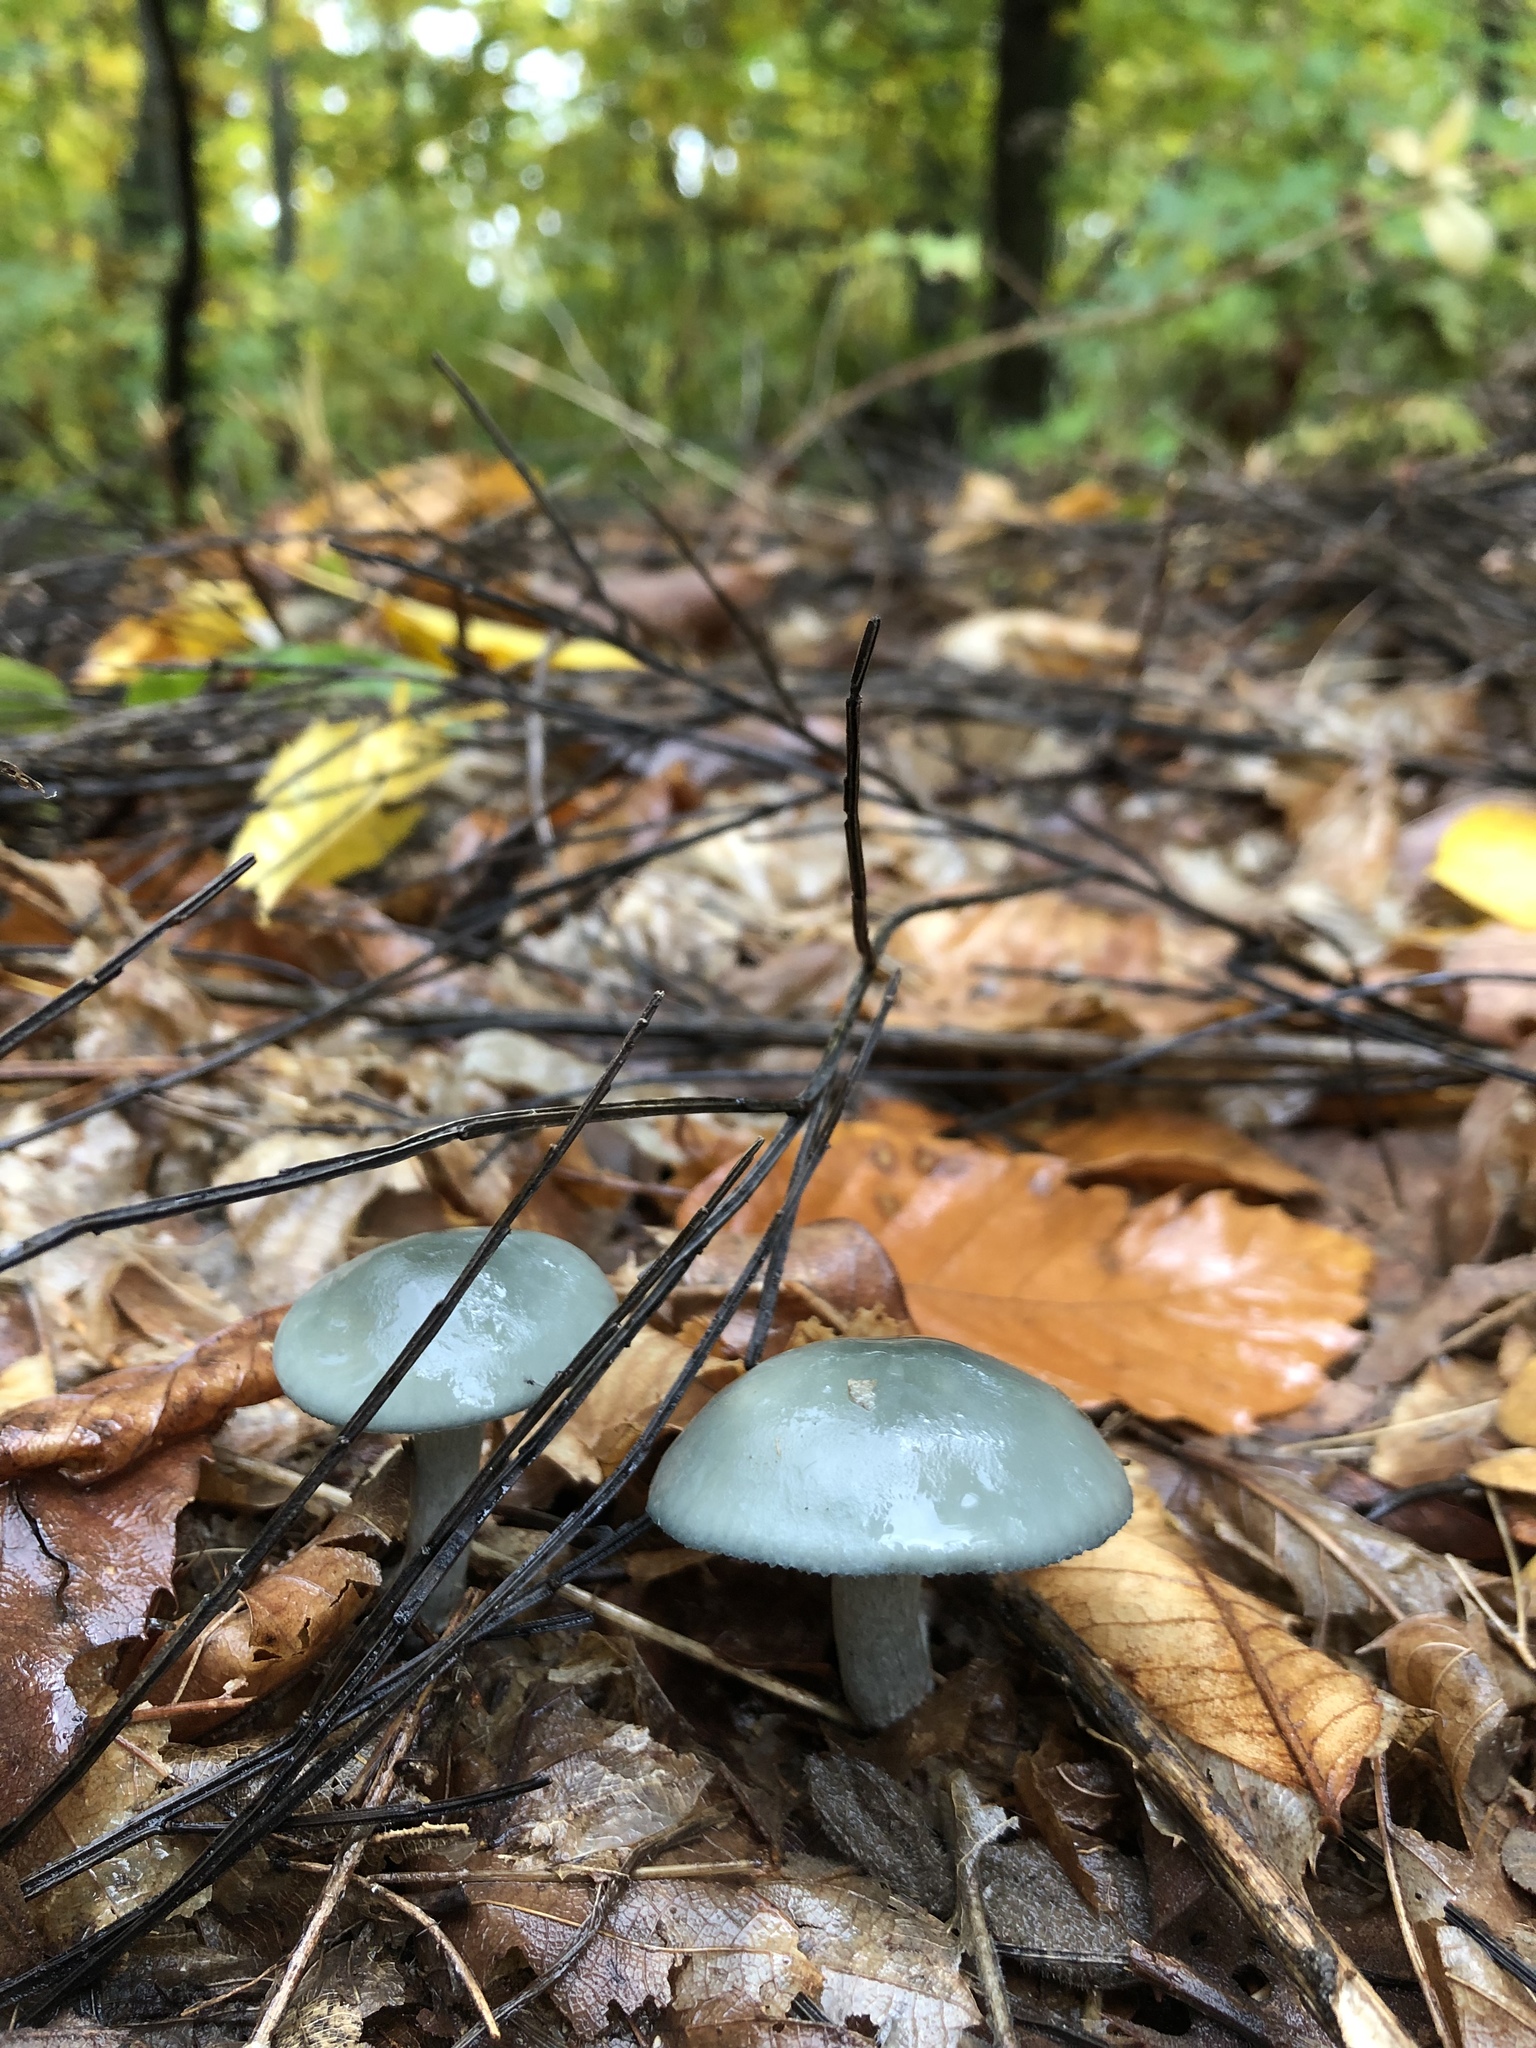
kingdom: Fungi
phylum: Basidiomycota
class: Agaricomycetes
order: Agaricales
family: Tricholomataceae
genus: Collybia
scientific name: Collybia
